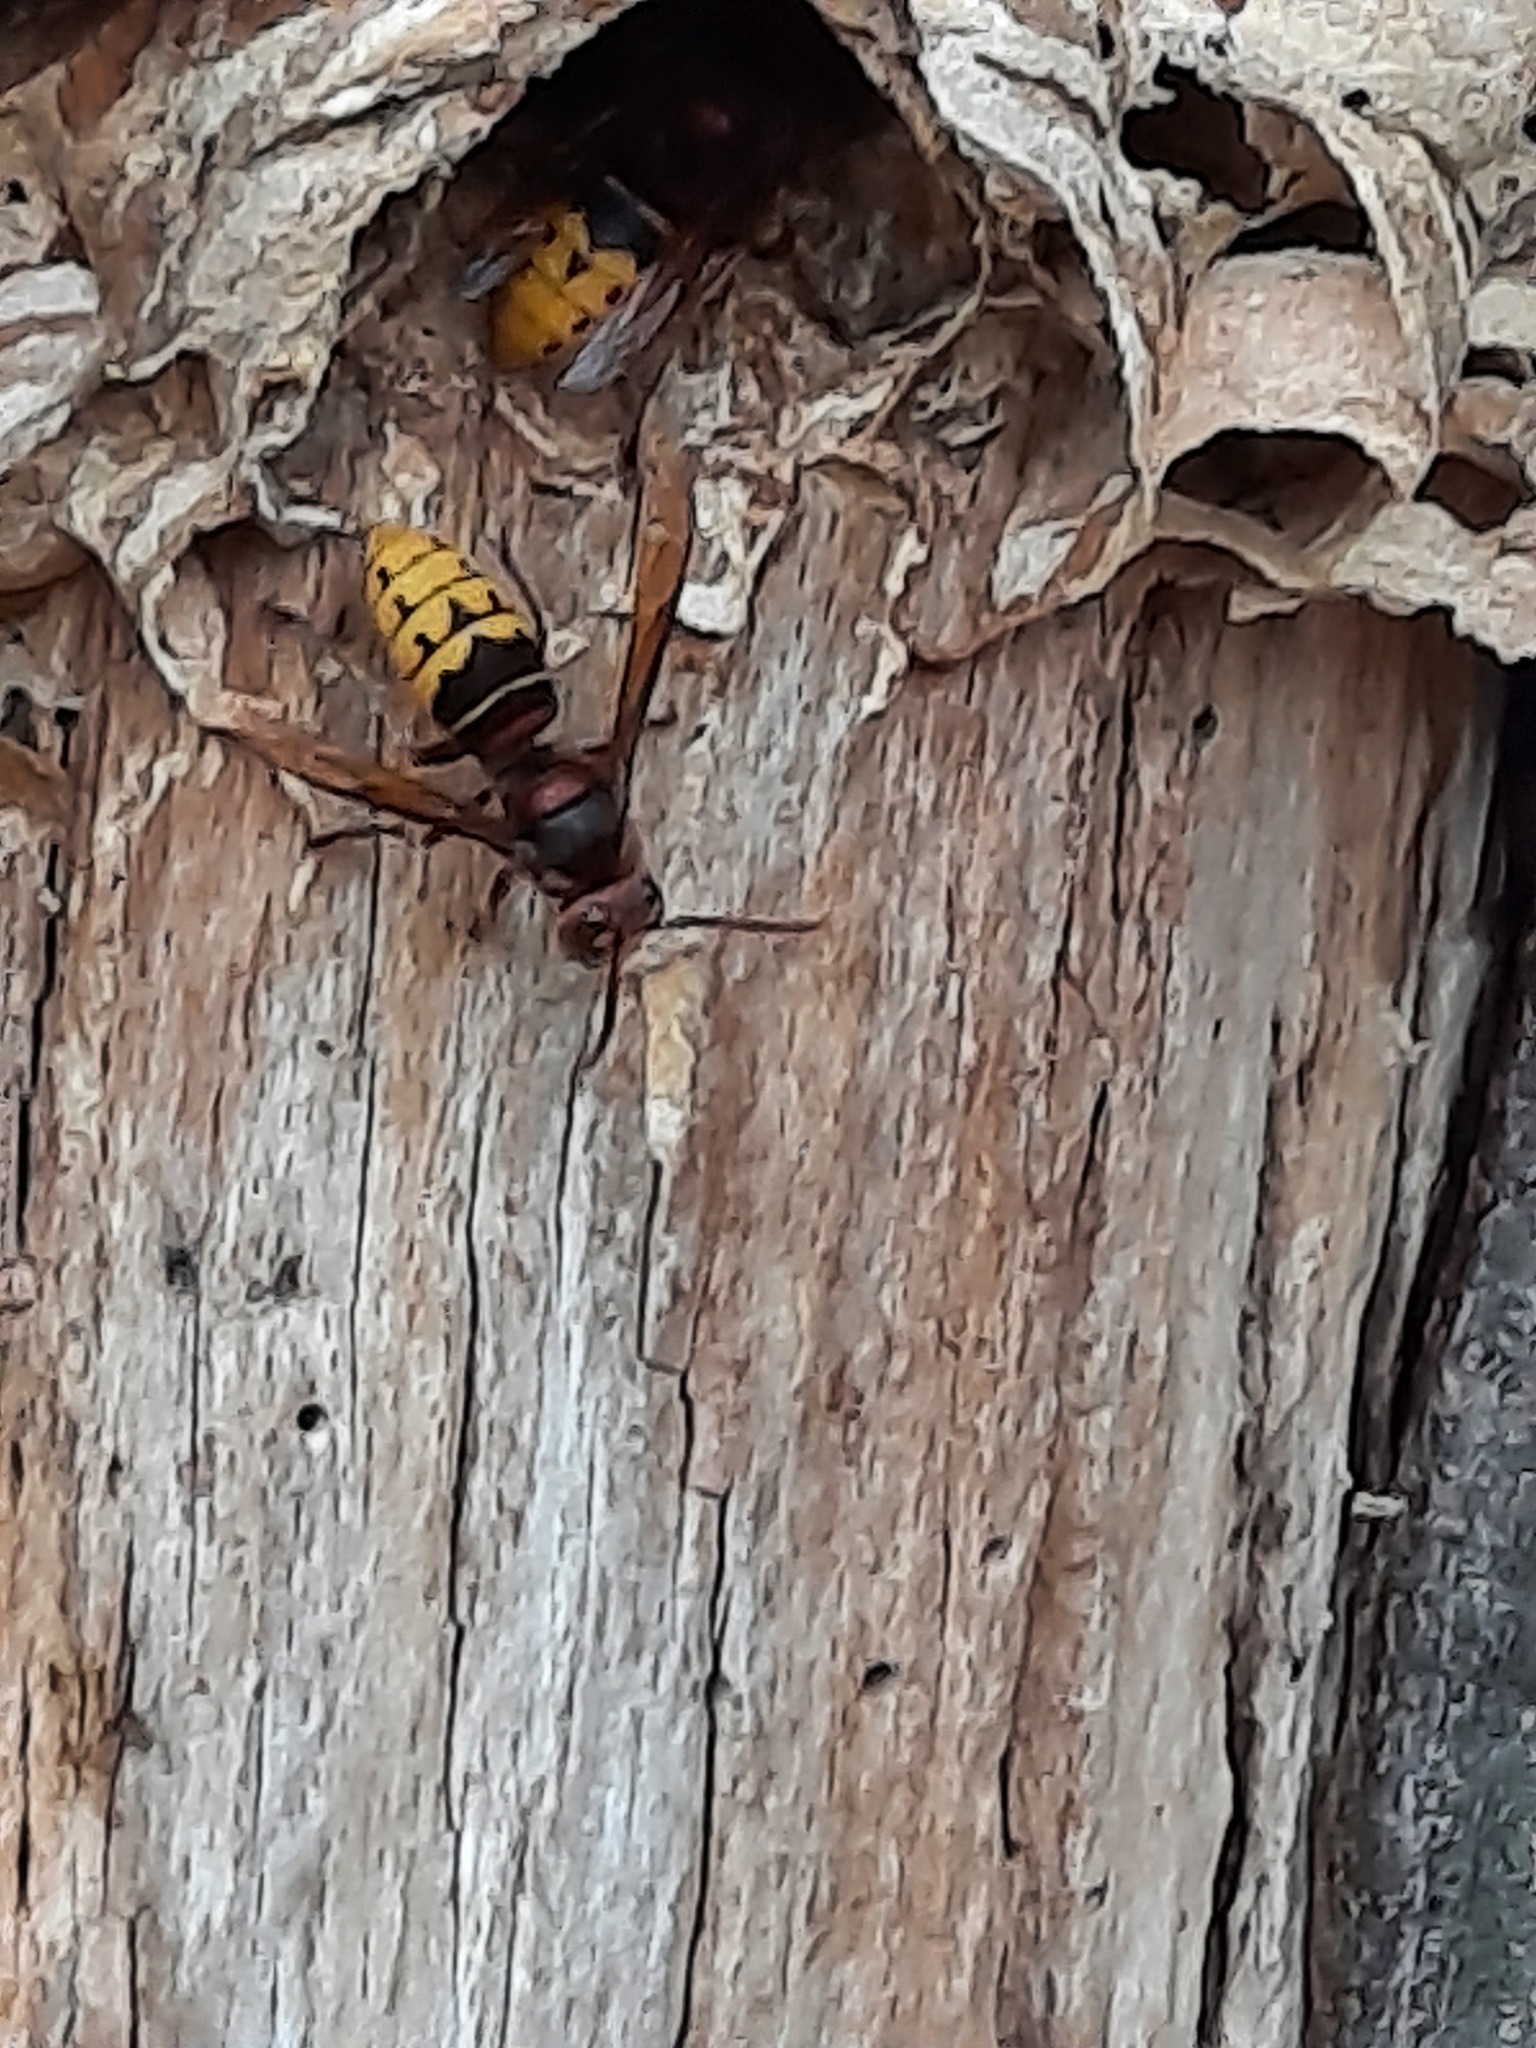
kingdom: Animalia
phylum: Arthropoda
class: Insecta
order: Hymenoptera
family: Vespidae
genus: Vespa
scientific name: Vespa crabro
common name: Hornet
